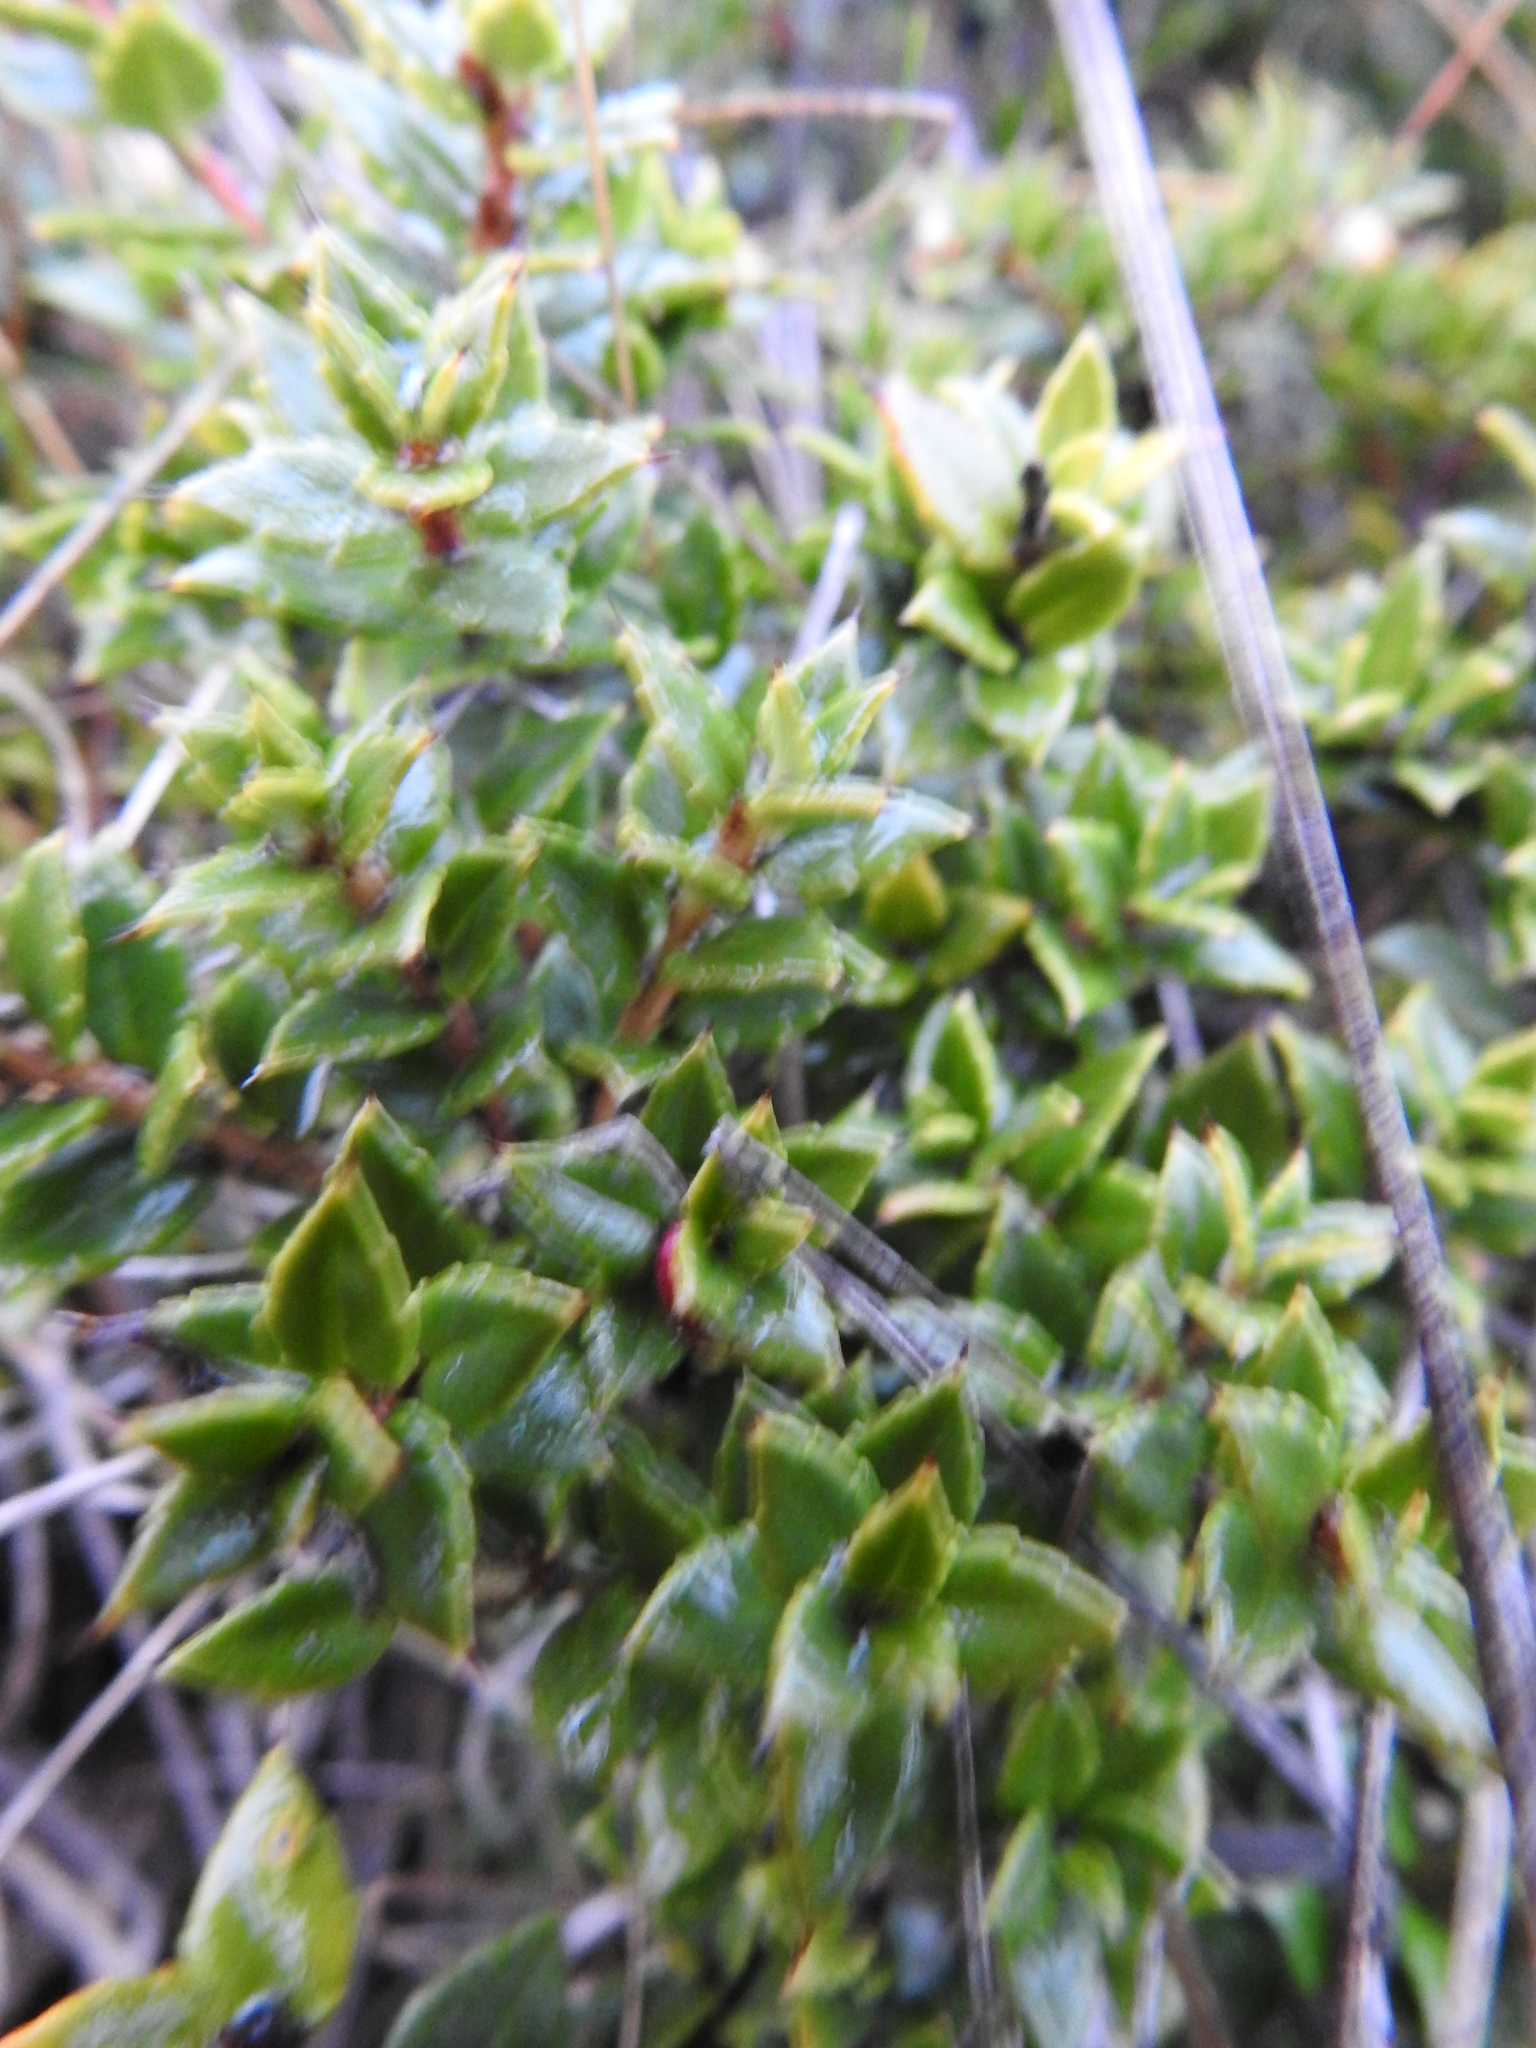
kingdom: Plantae
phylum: Tracheophyta
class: Magnoliopsida
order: Ericales
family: Ericaceae
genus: Gaultheria
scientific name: Gaultheria mucronata
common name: Prickly heath
